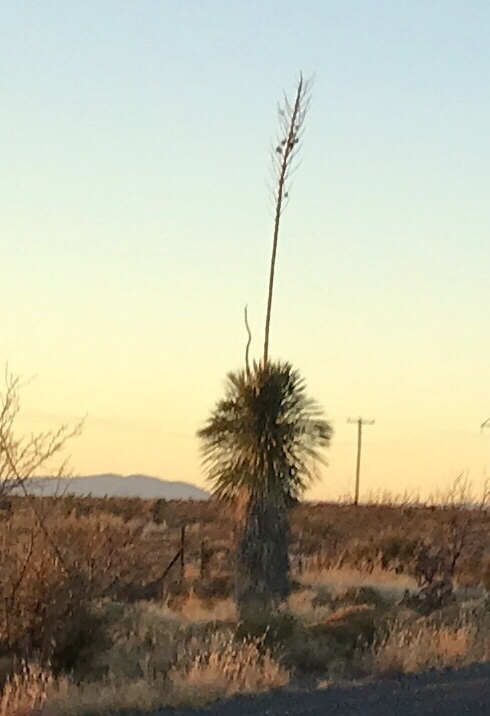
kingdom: Plantae
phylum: Tracheophyta
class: Liliopsida
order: Asparagales
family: Asparagaceae
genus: Yucca
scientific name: Yucca elata
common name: Palmella
